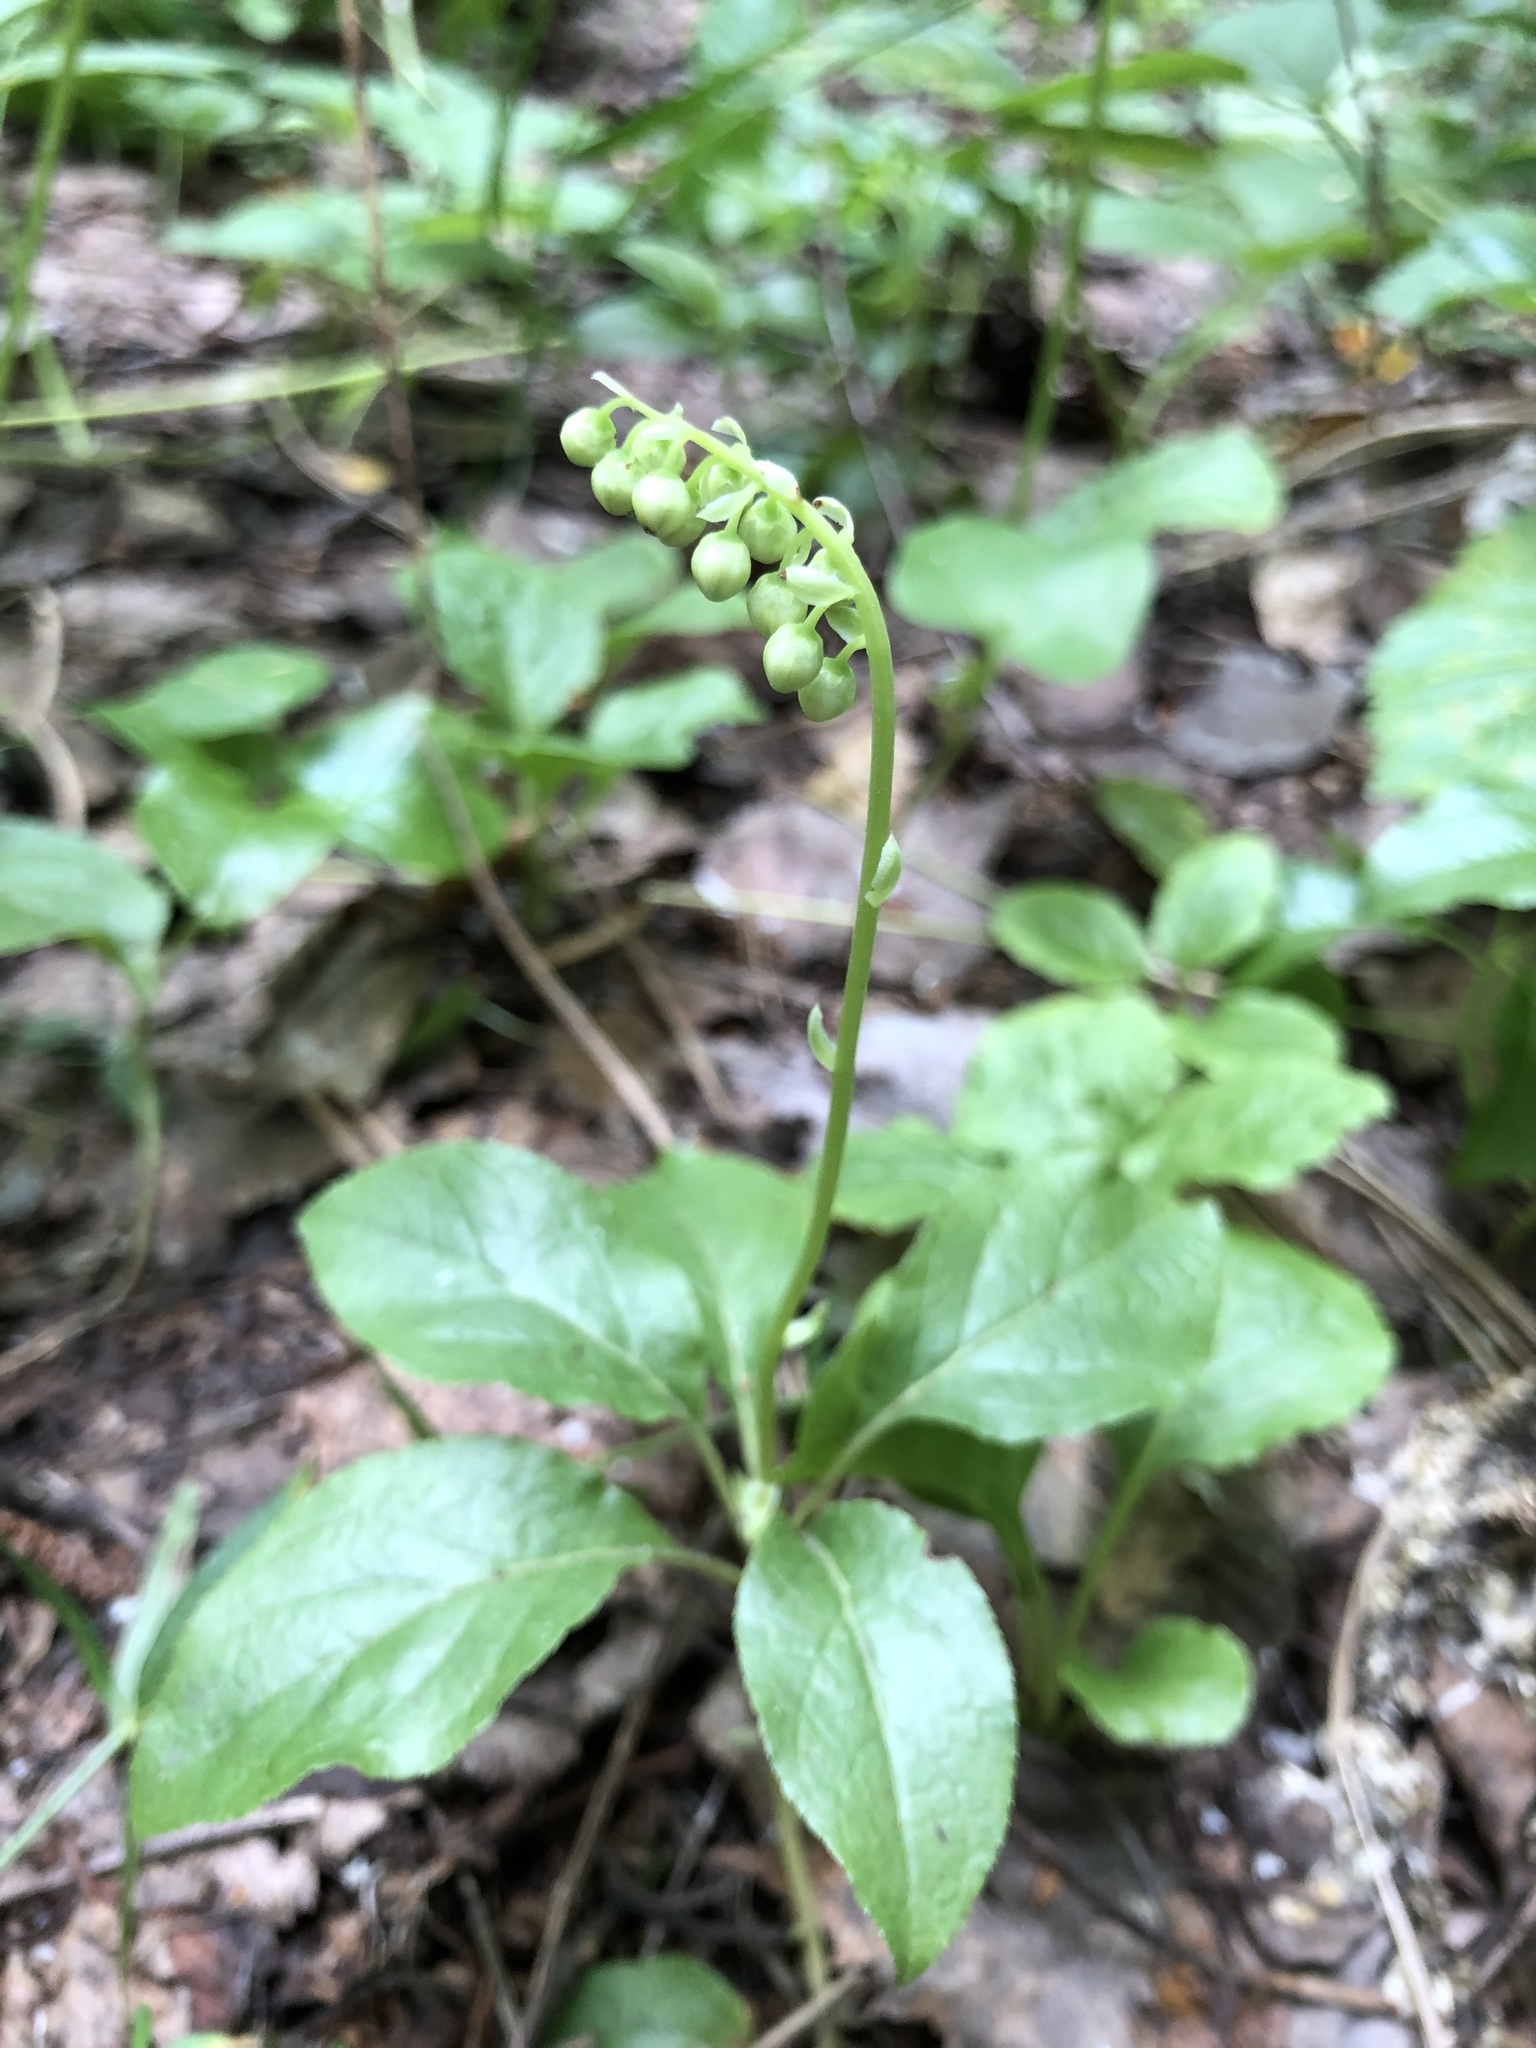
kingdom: Plantae
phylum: Tracheophyta
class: Magnoliopsida
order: Ericales
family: Ericaceae
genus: Orthilia
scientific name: Orthilia secunda
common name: One-sided orthilia
